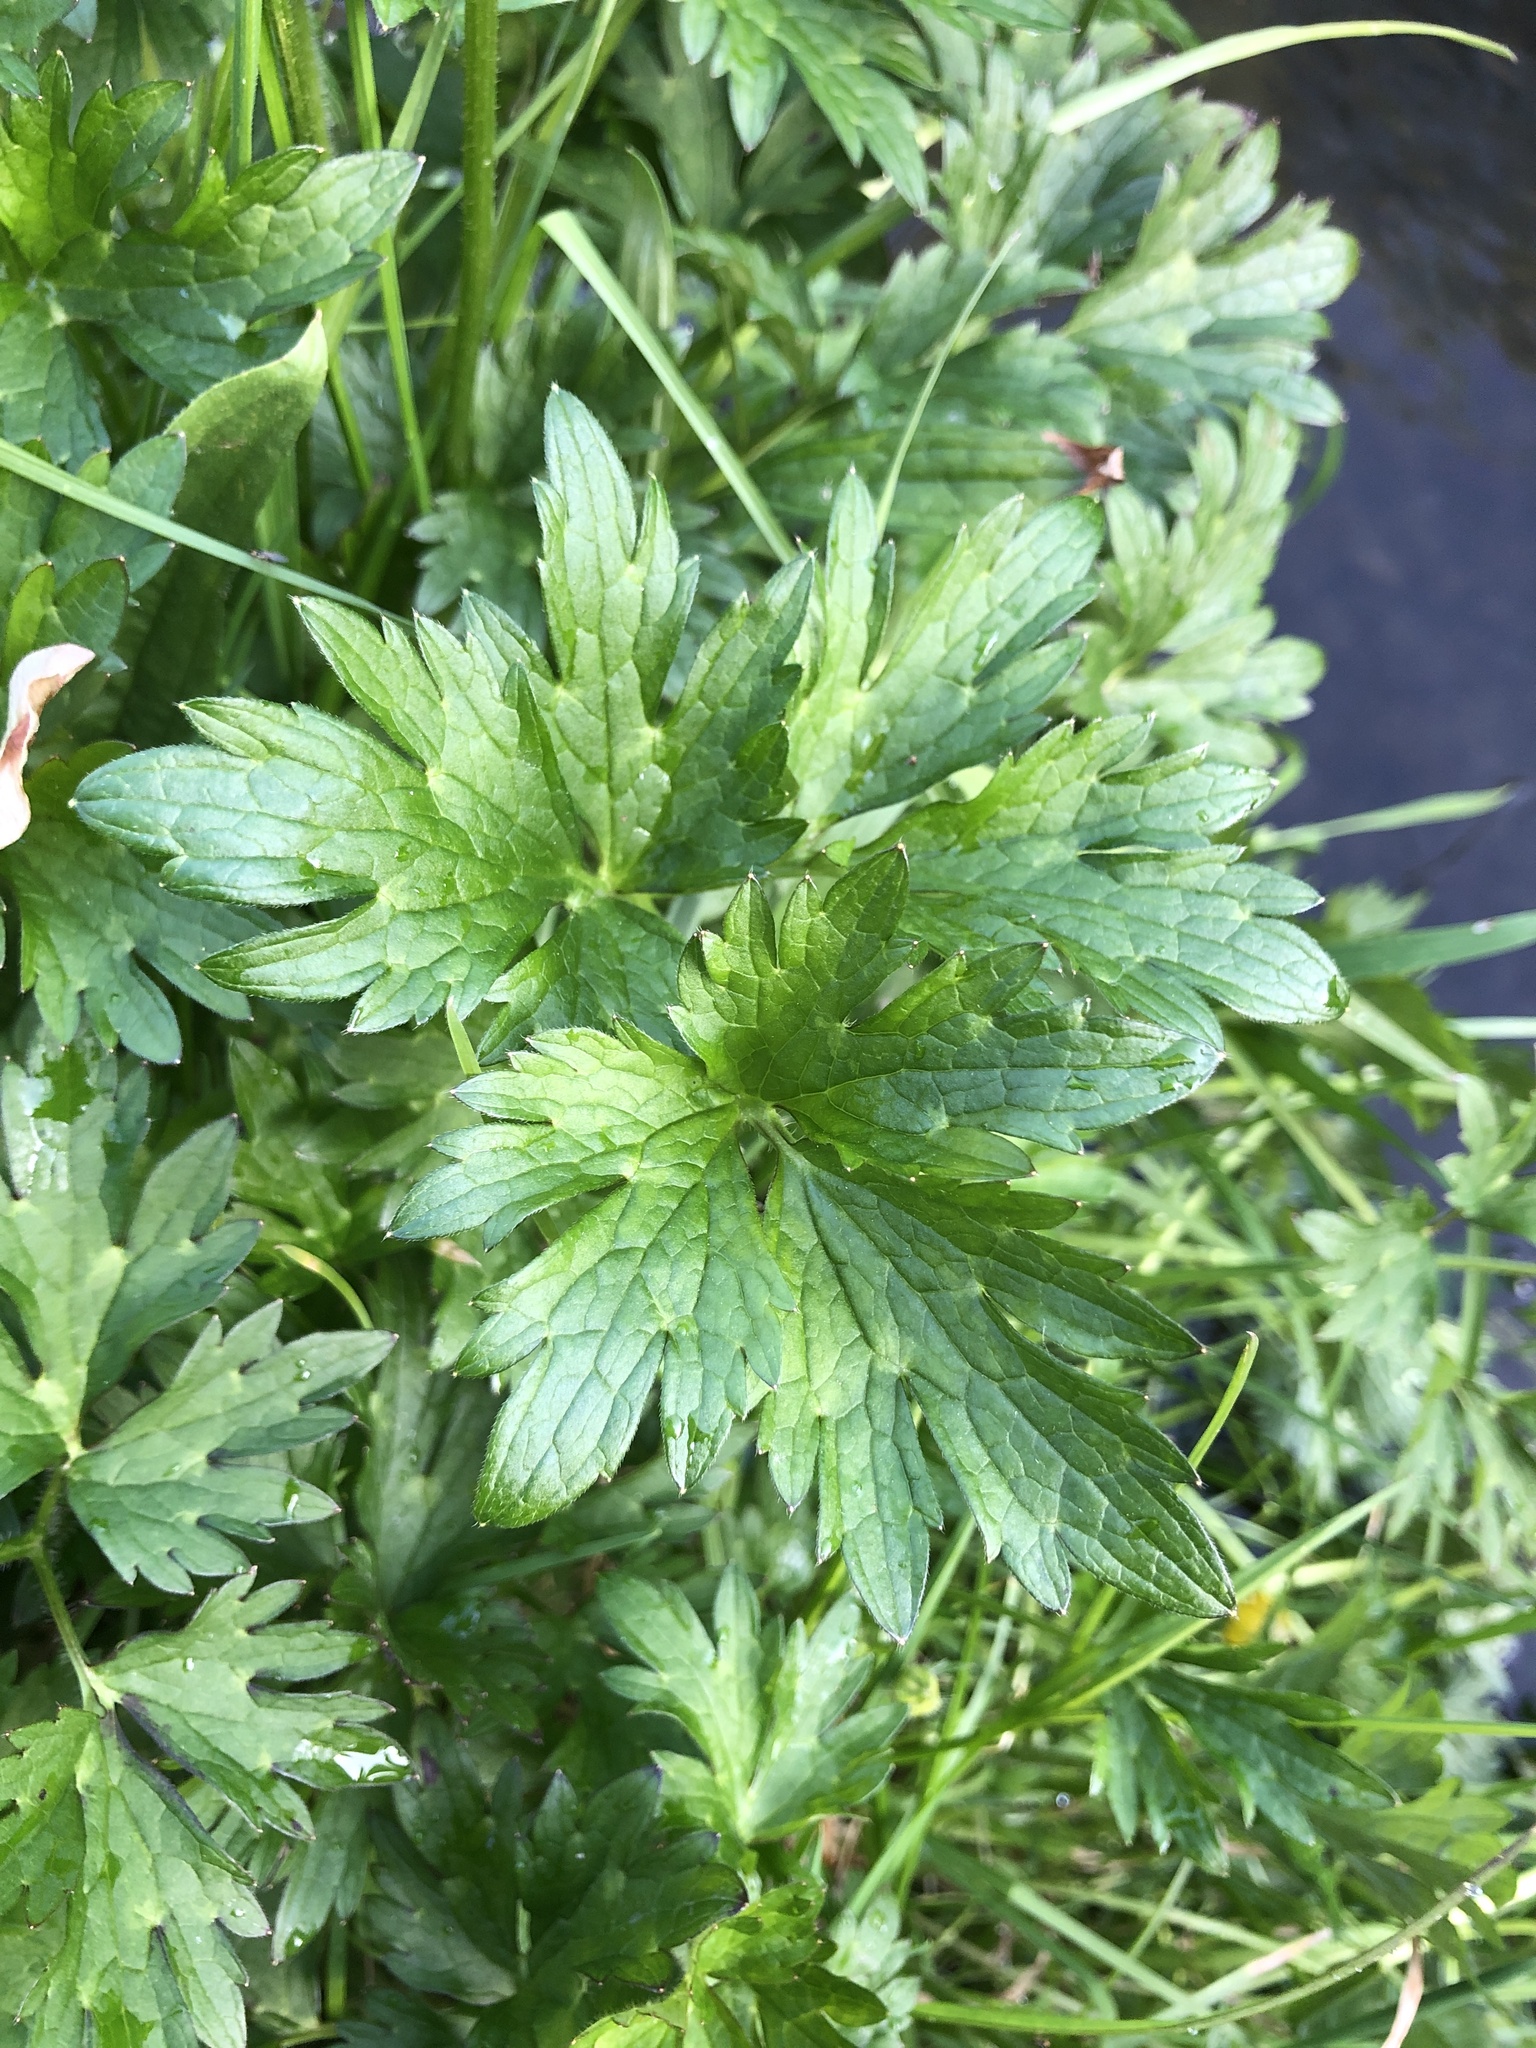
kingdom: Plantae
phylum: Tracheophyta
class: Magnoliopsida
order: Ranunculales
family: Ranunculaceae
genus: Ranunculus
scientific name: Ranunculus repens
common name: Creeping buttercup
